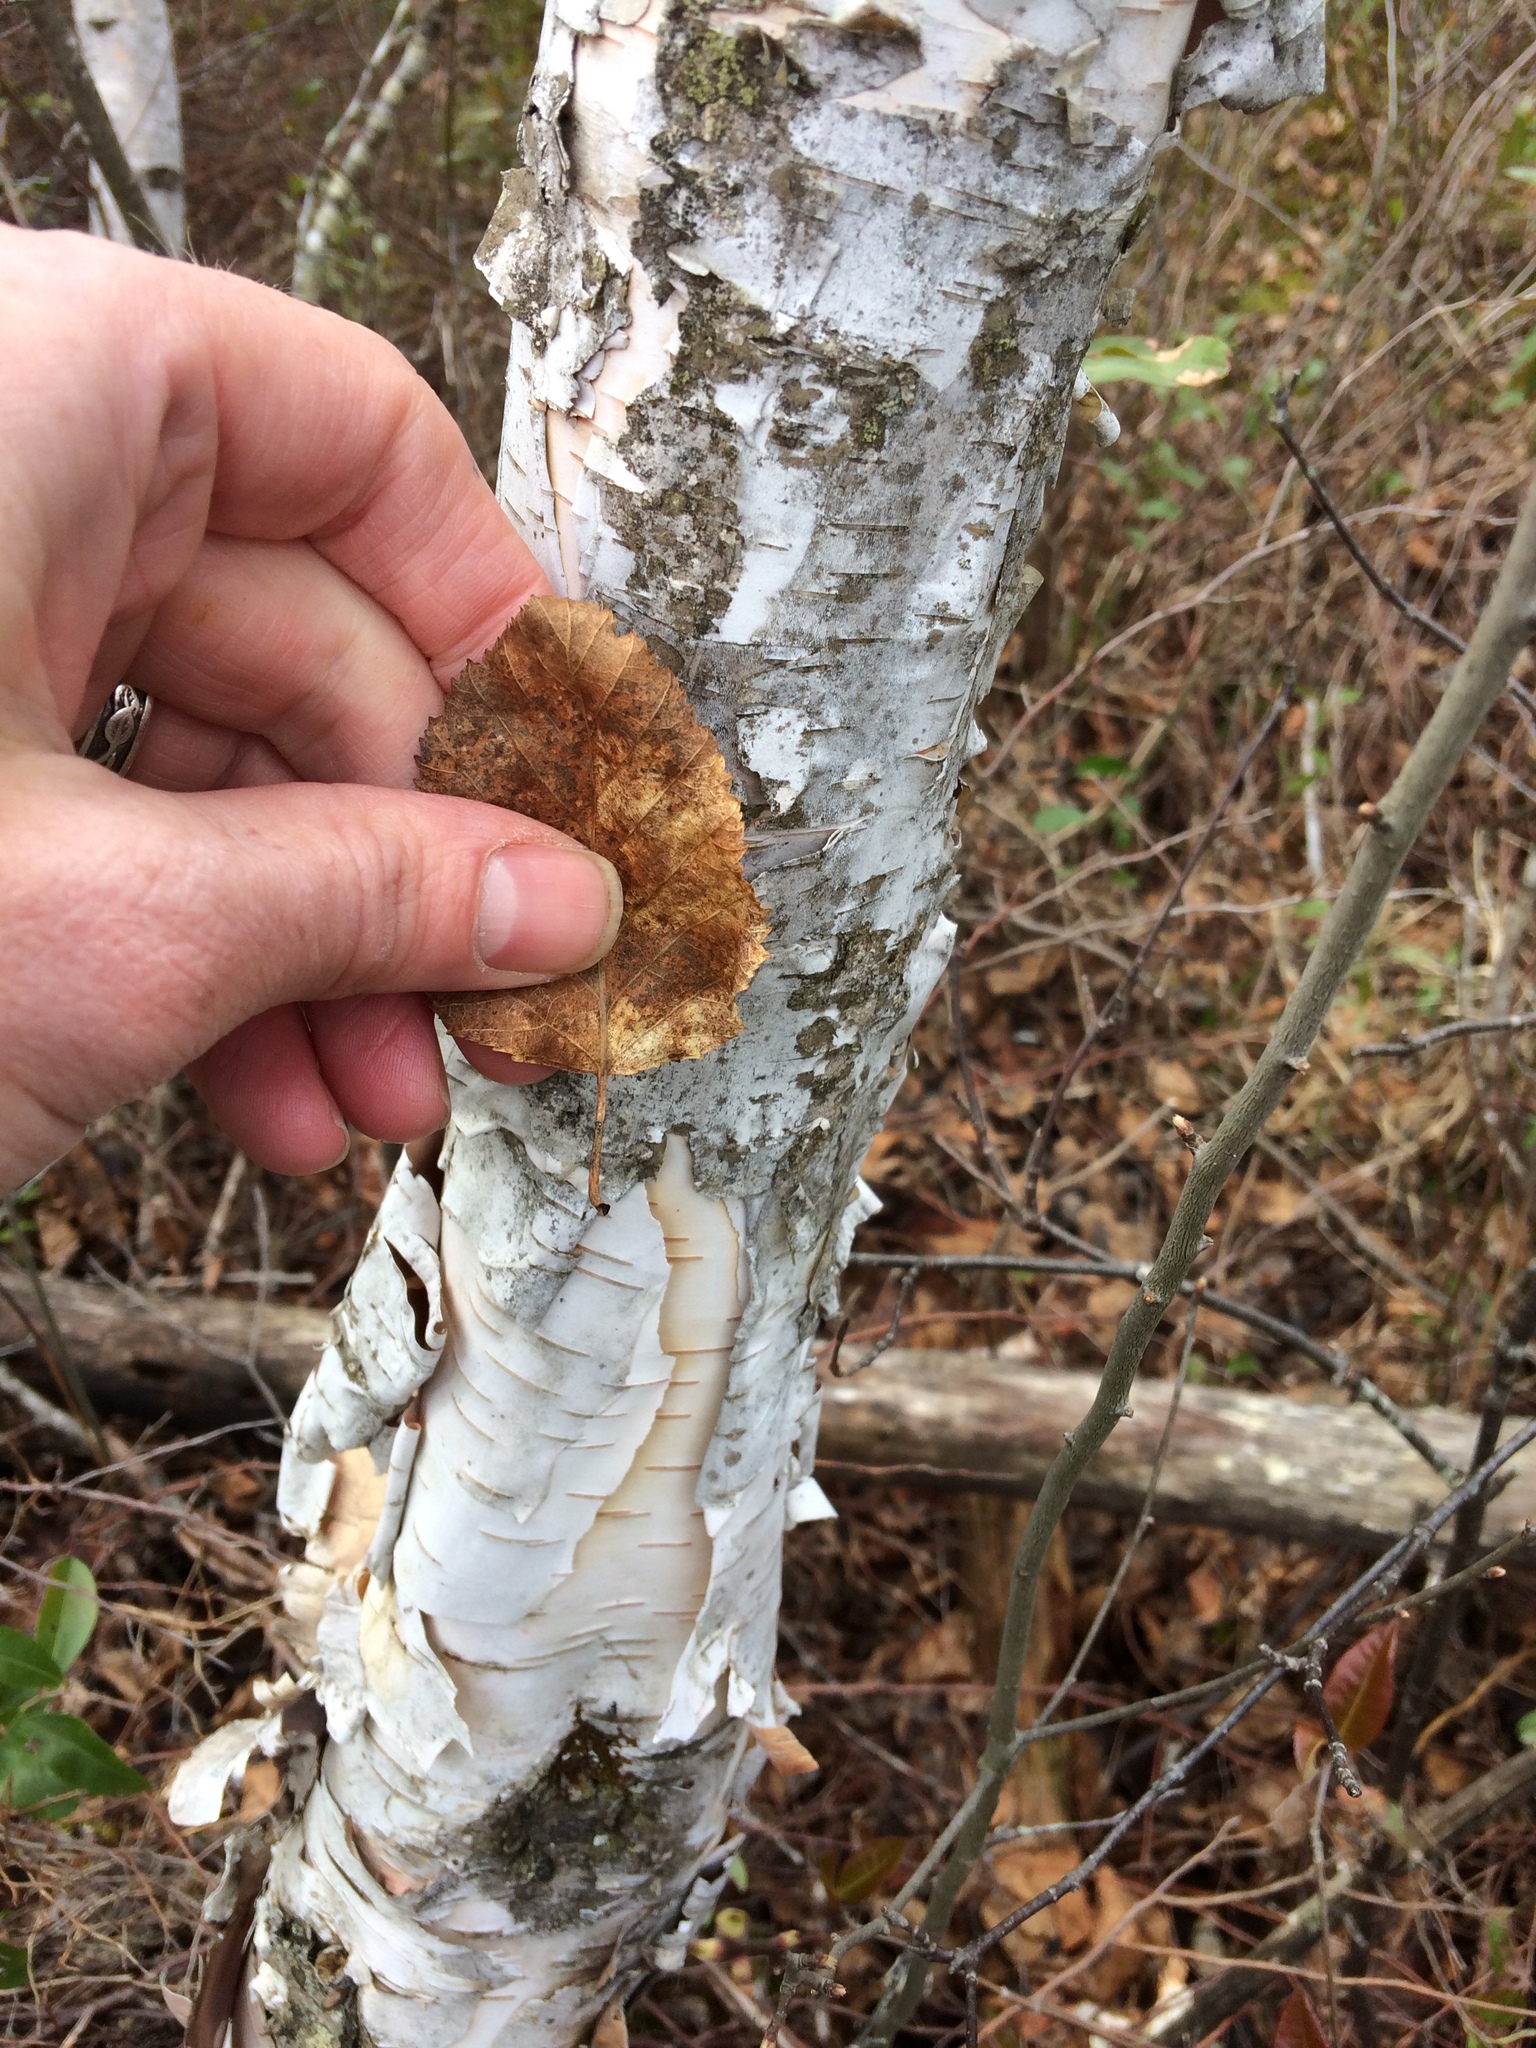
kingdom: Plantae
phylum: Tracheophyta
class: Magnoliopsida
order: Fagales
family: Betulaceae
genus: Betula
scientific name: Betula papyrifera
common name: Paper birch
